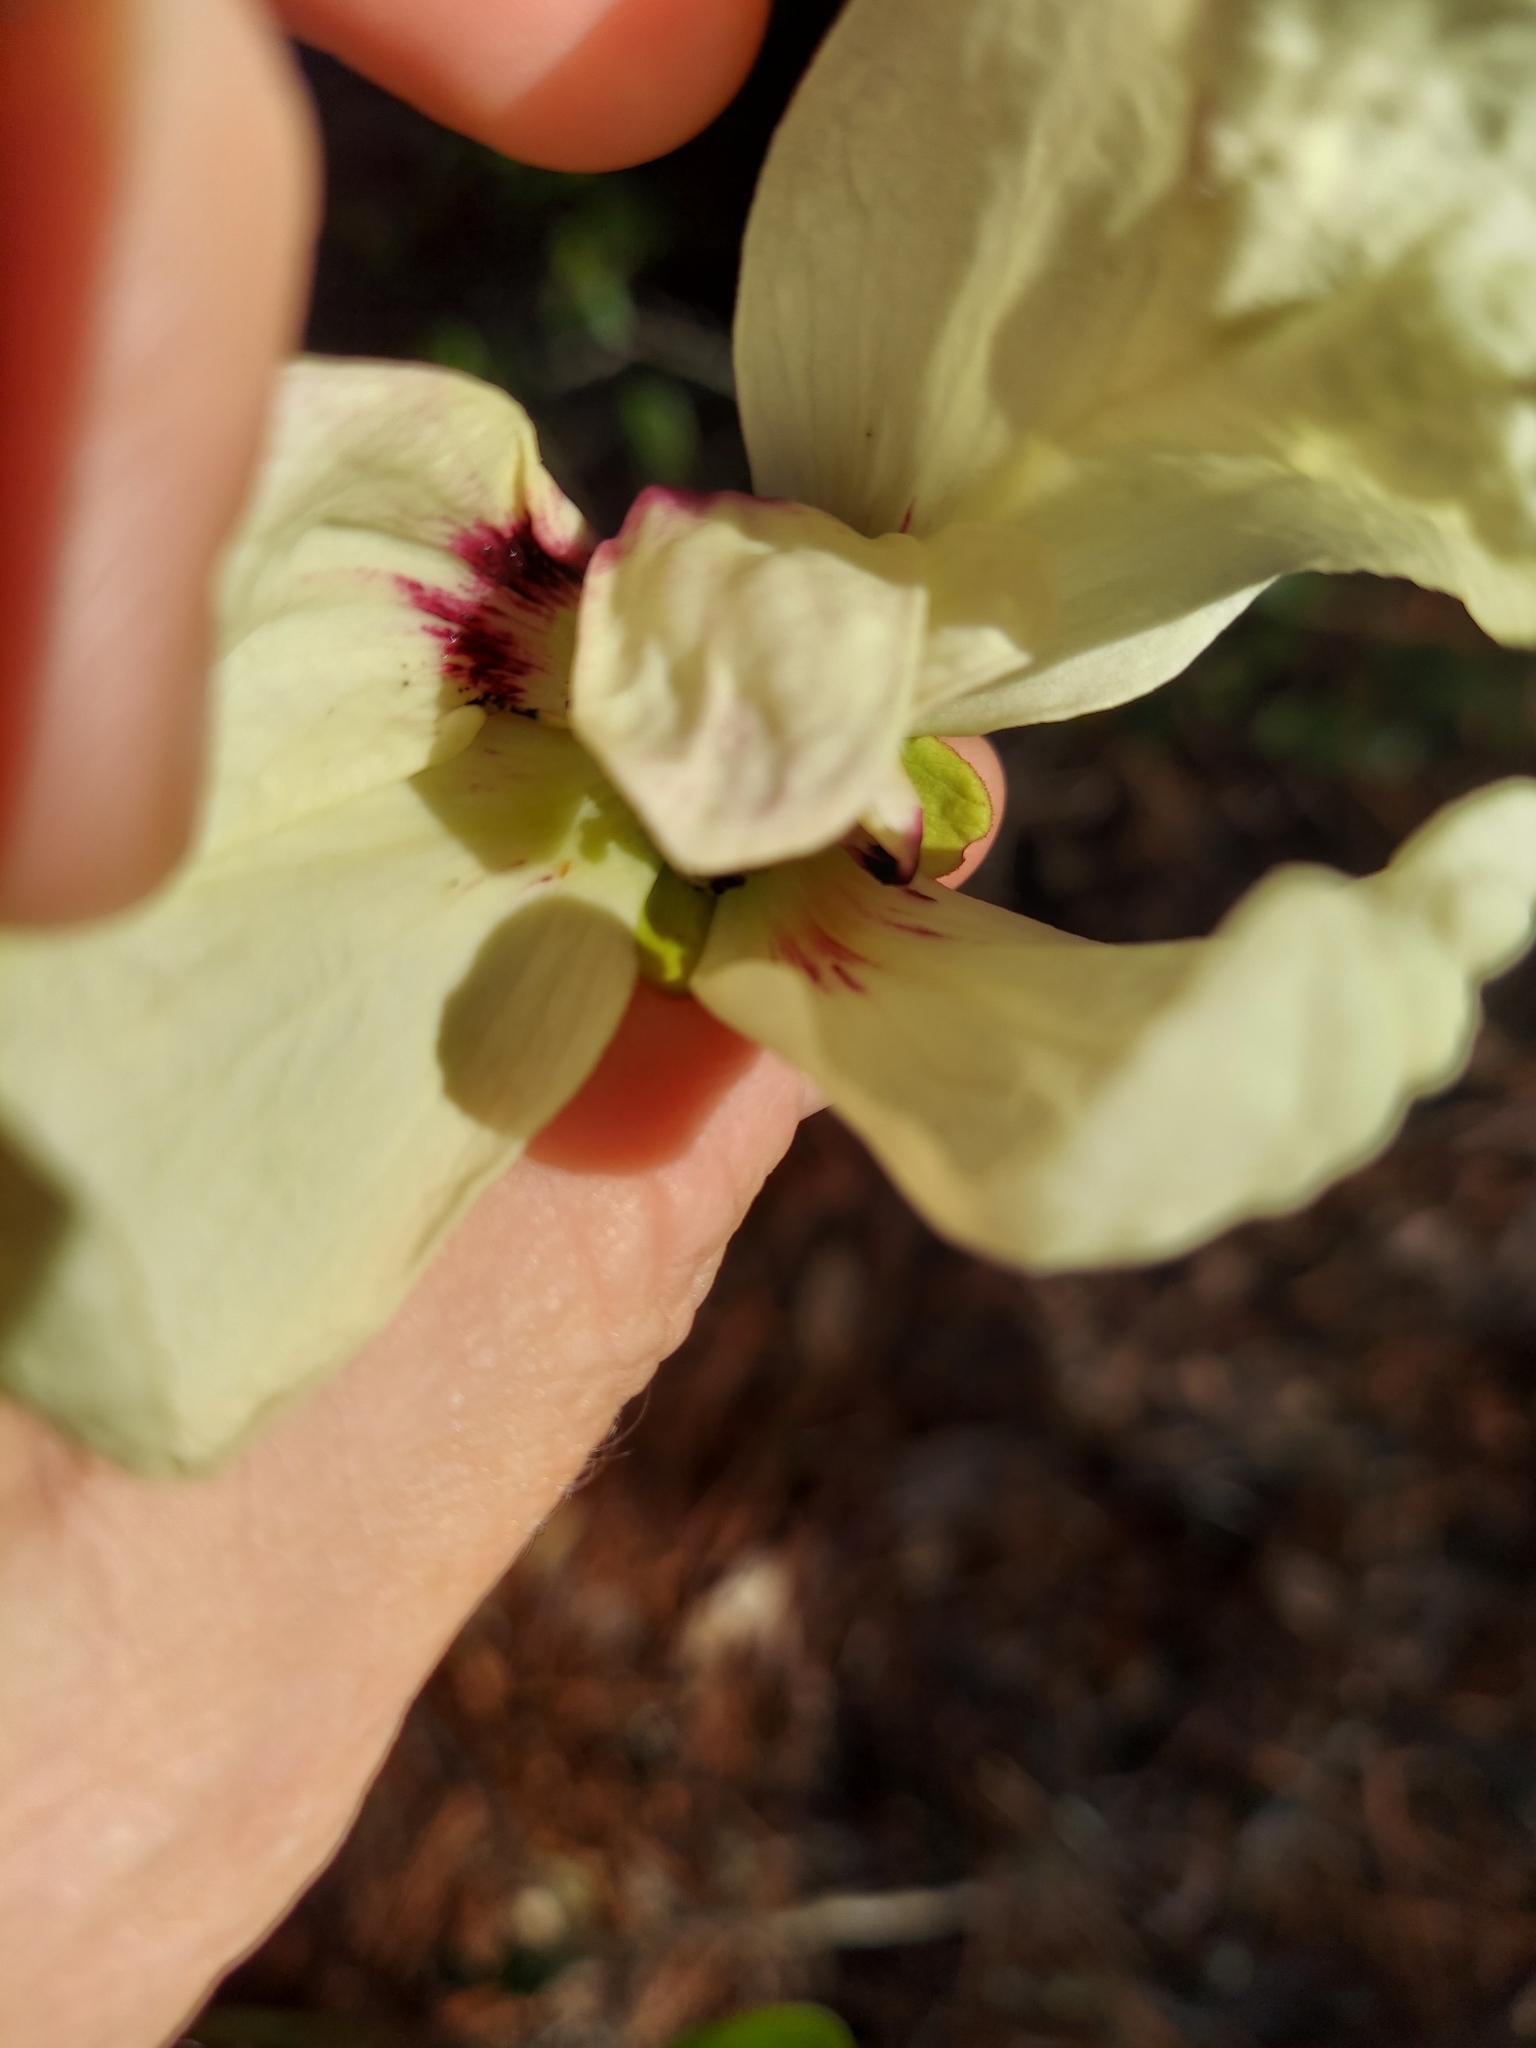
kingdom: Plantae
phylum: Tracheophyta
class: Magnoliopsida
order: Magnoliales
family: Annonaceae
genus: Asimina
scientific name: Asimina obovata
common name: Flag pawpaw
